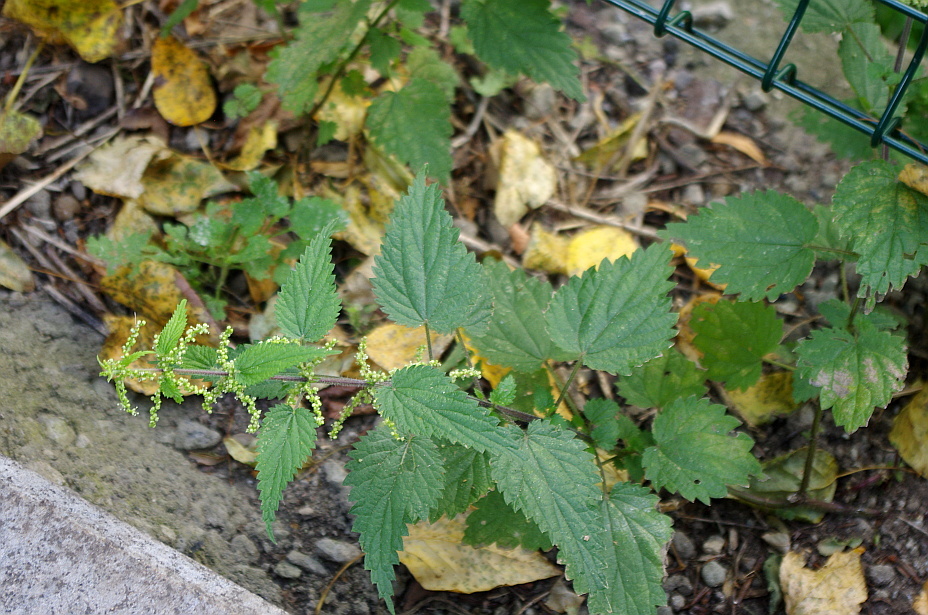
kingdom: Plantae
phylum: Tracheophyta
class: Magnoliopsida
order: Rosales
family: Urticaceae
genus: Urtica
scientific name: Urtica dioica
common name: Common nettle
